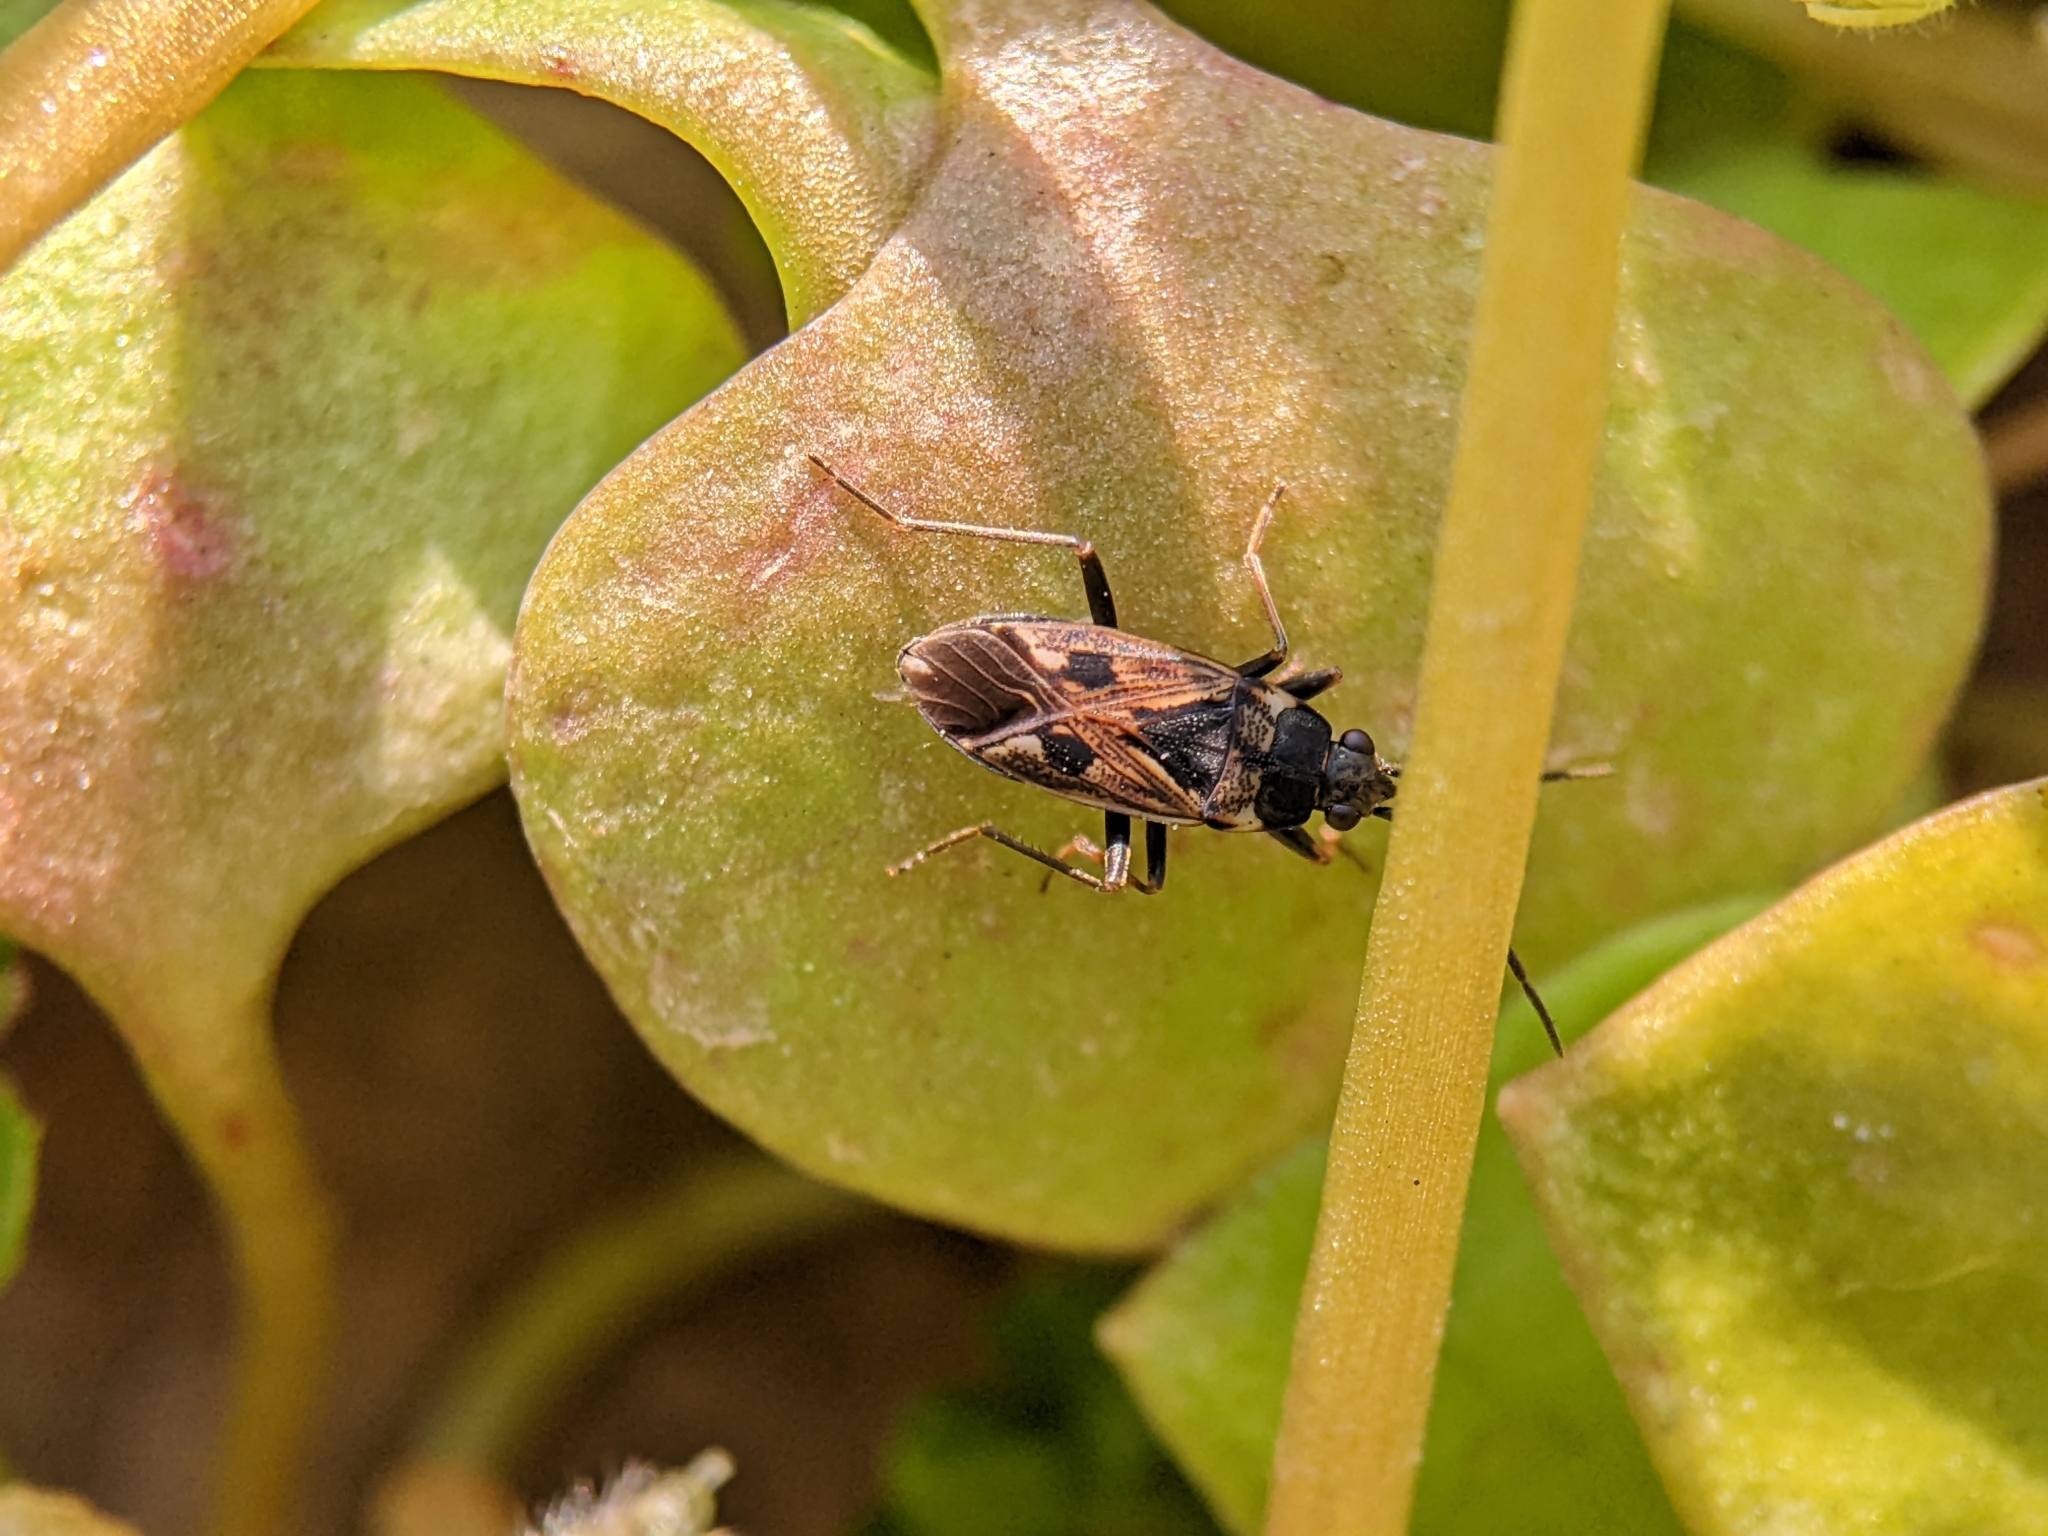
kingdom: Animalia
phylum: Arthropoda
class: Insecta
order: Hemiptera
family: Rhyparochromidae
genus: Rhyparochromus
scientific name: Rhyparochromus vulgaris
